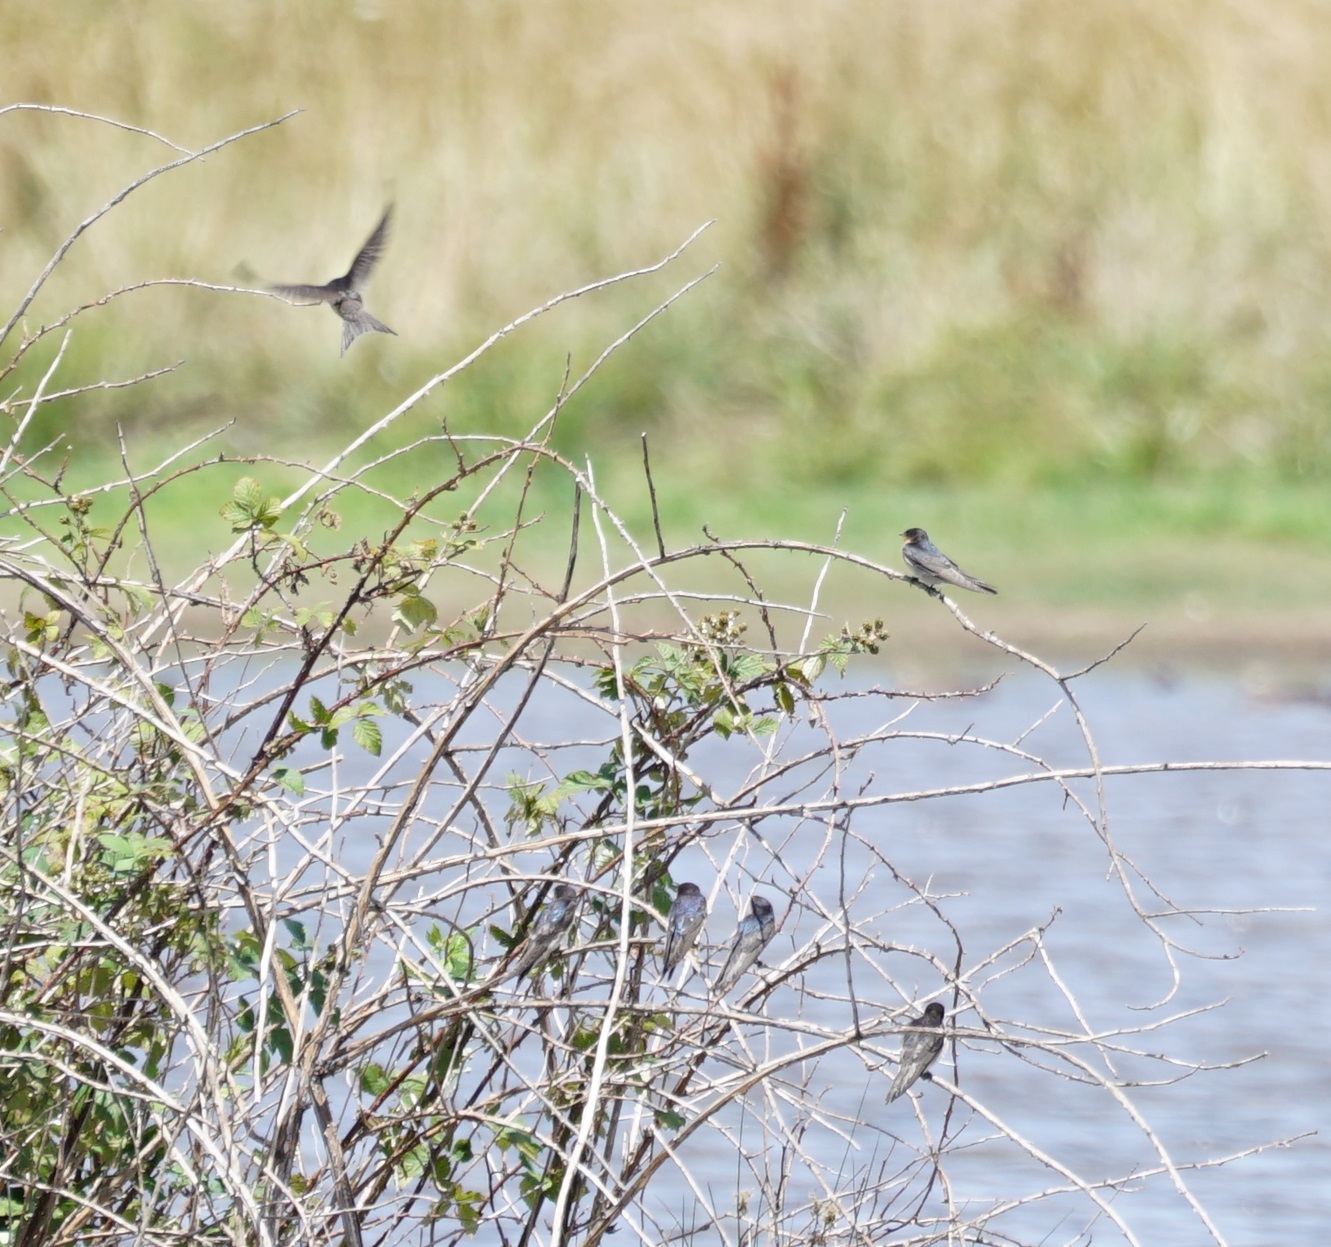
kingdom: Animalia
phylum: Chordata
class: Aves
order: Passeriformes
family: Hirundinidae
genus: Hirundo
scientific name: Hirundo neoxena
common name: Welcome swallow
